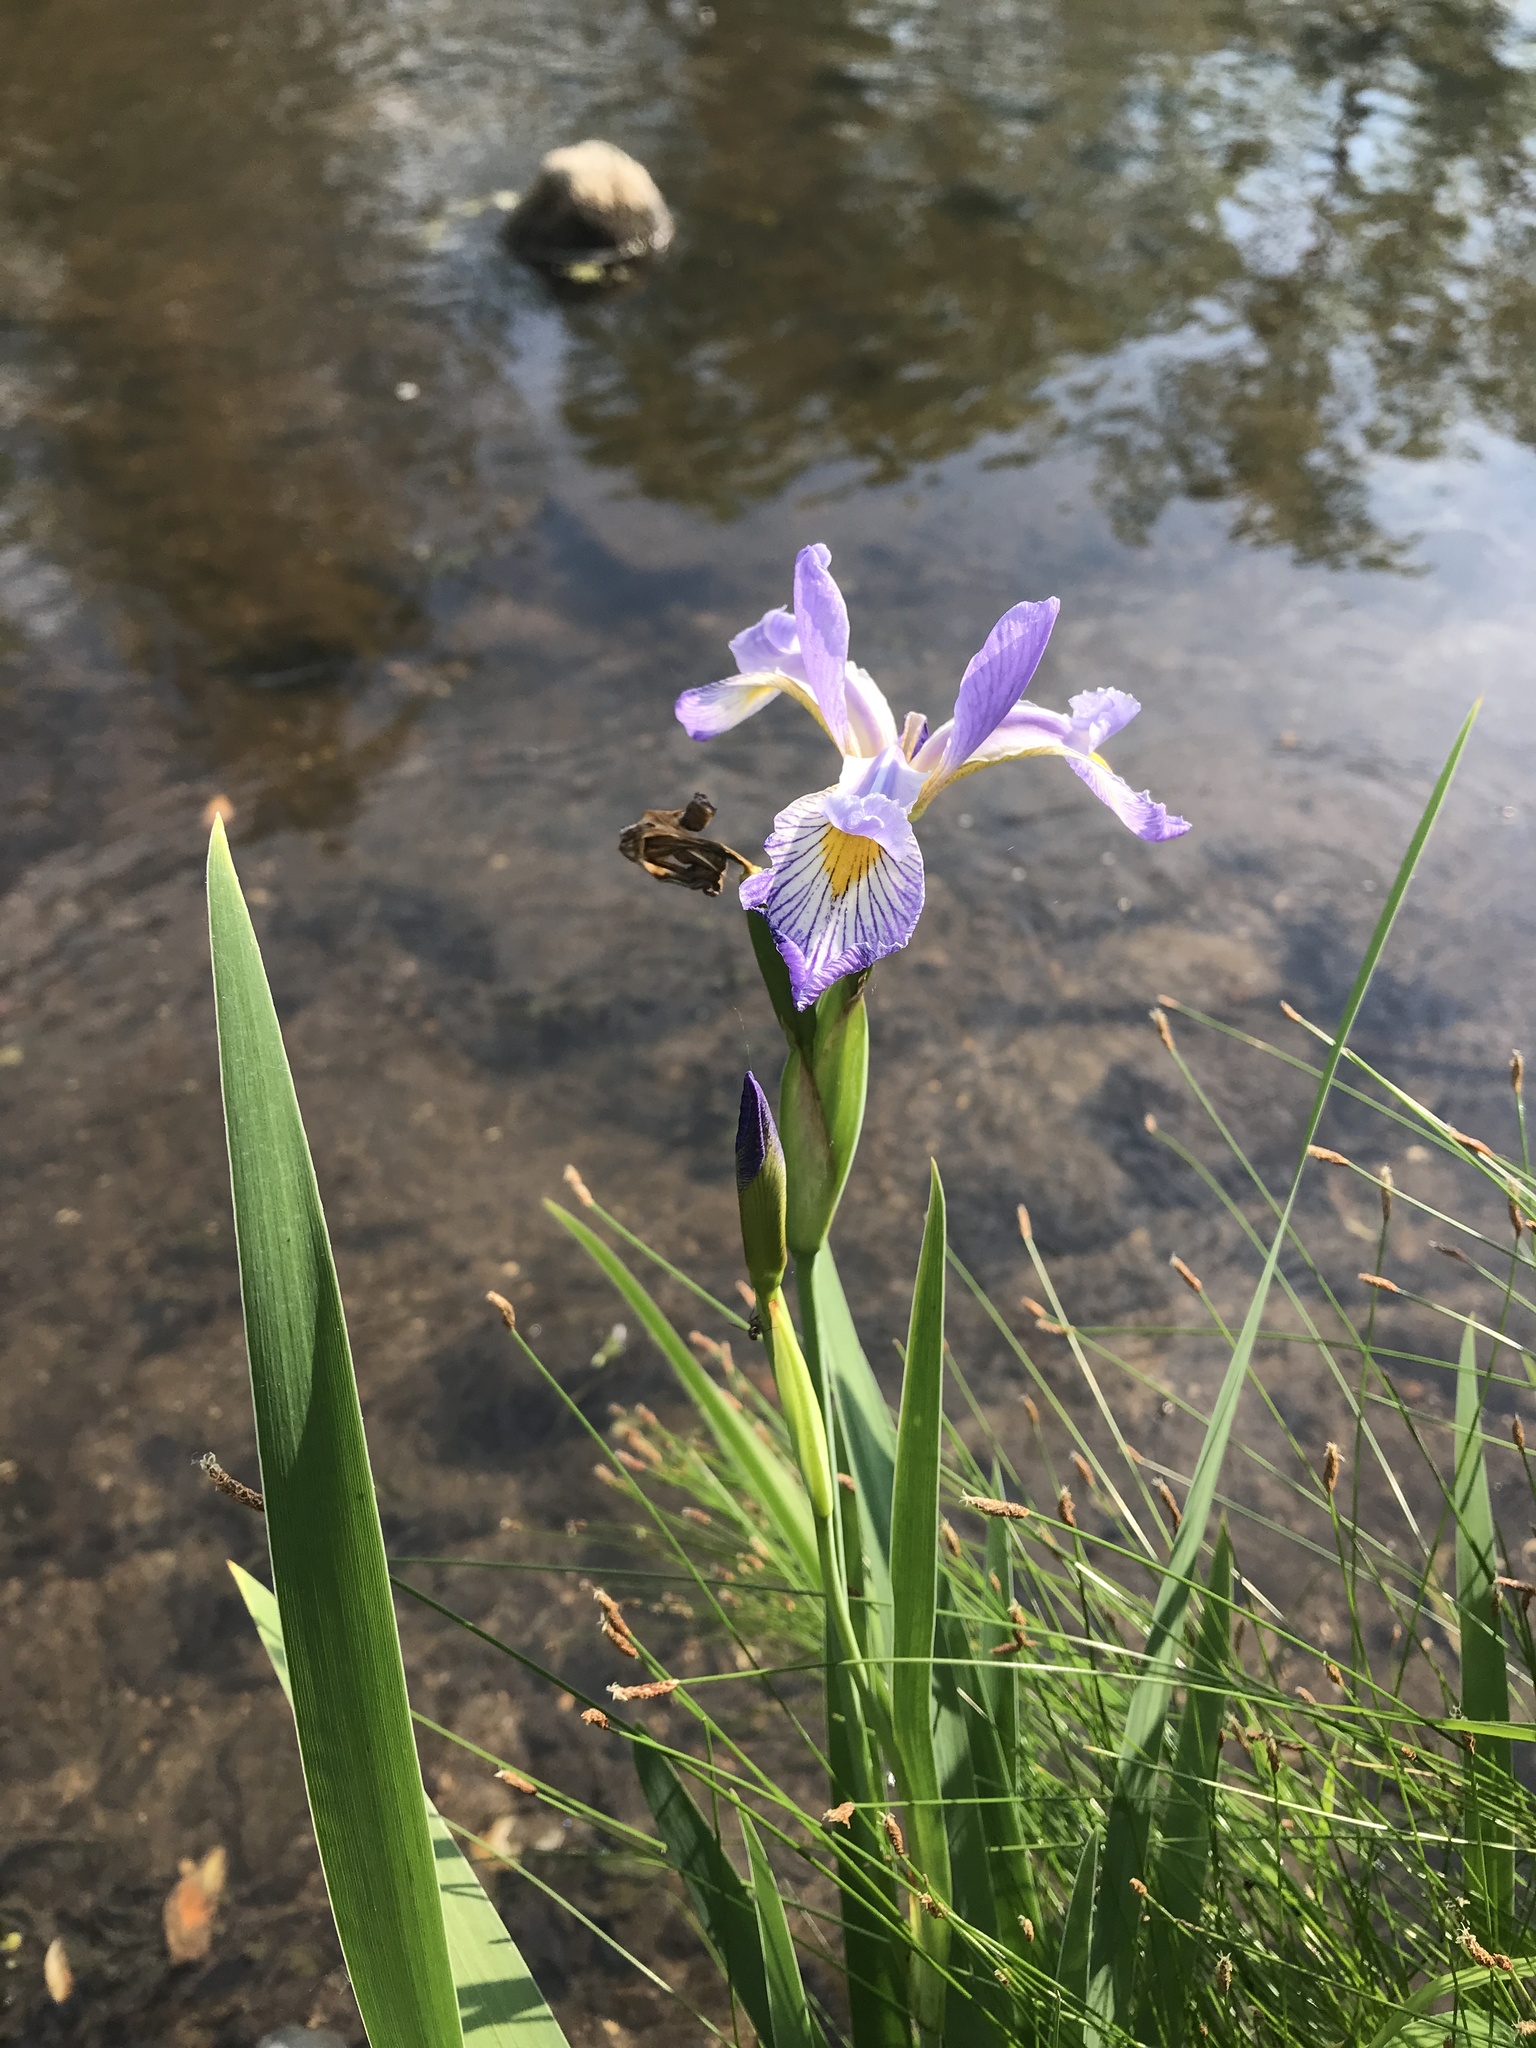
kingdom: Plantae
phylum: Tracheophyta
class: Liliopsida
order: Asparagales
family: Iridaceae
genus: Iris
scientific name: Iris virginica
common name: Southern blue flag
